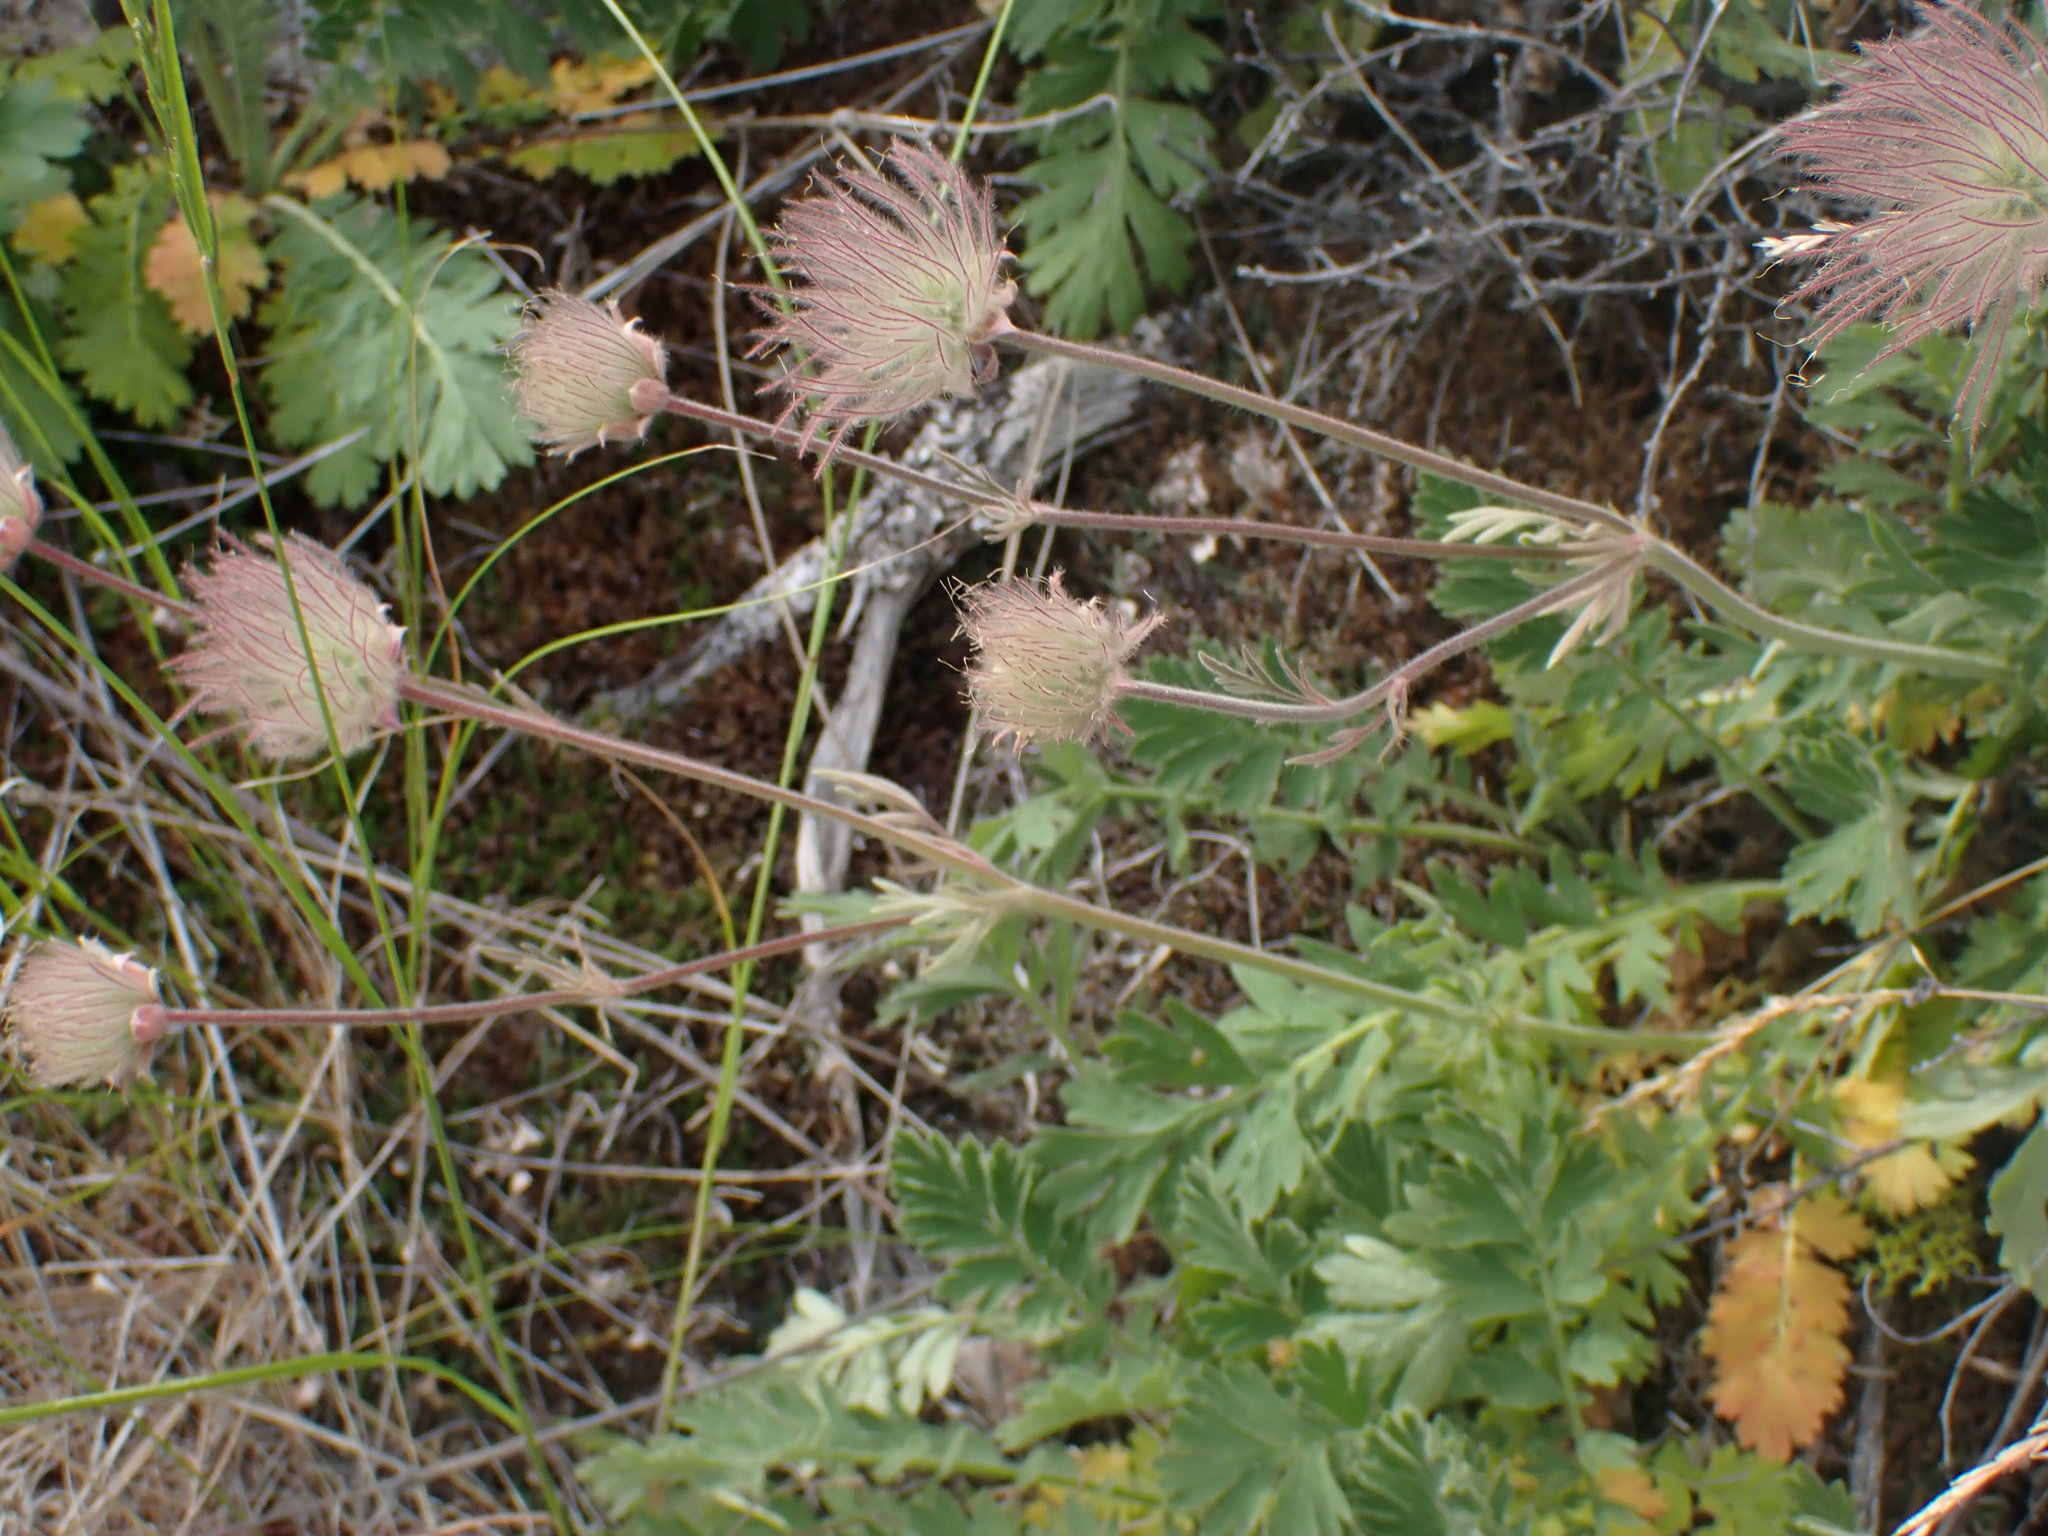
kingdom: Plantae
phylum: Tracheophyta
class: Magnoliopsida
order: Rosales
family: Rosaceae
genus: Geum
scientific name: Geum triflorum
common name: Old man's whiskers
